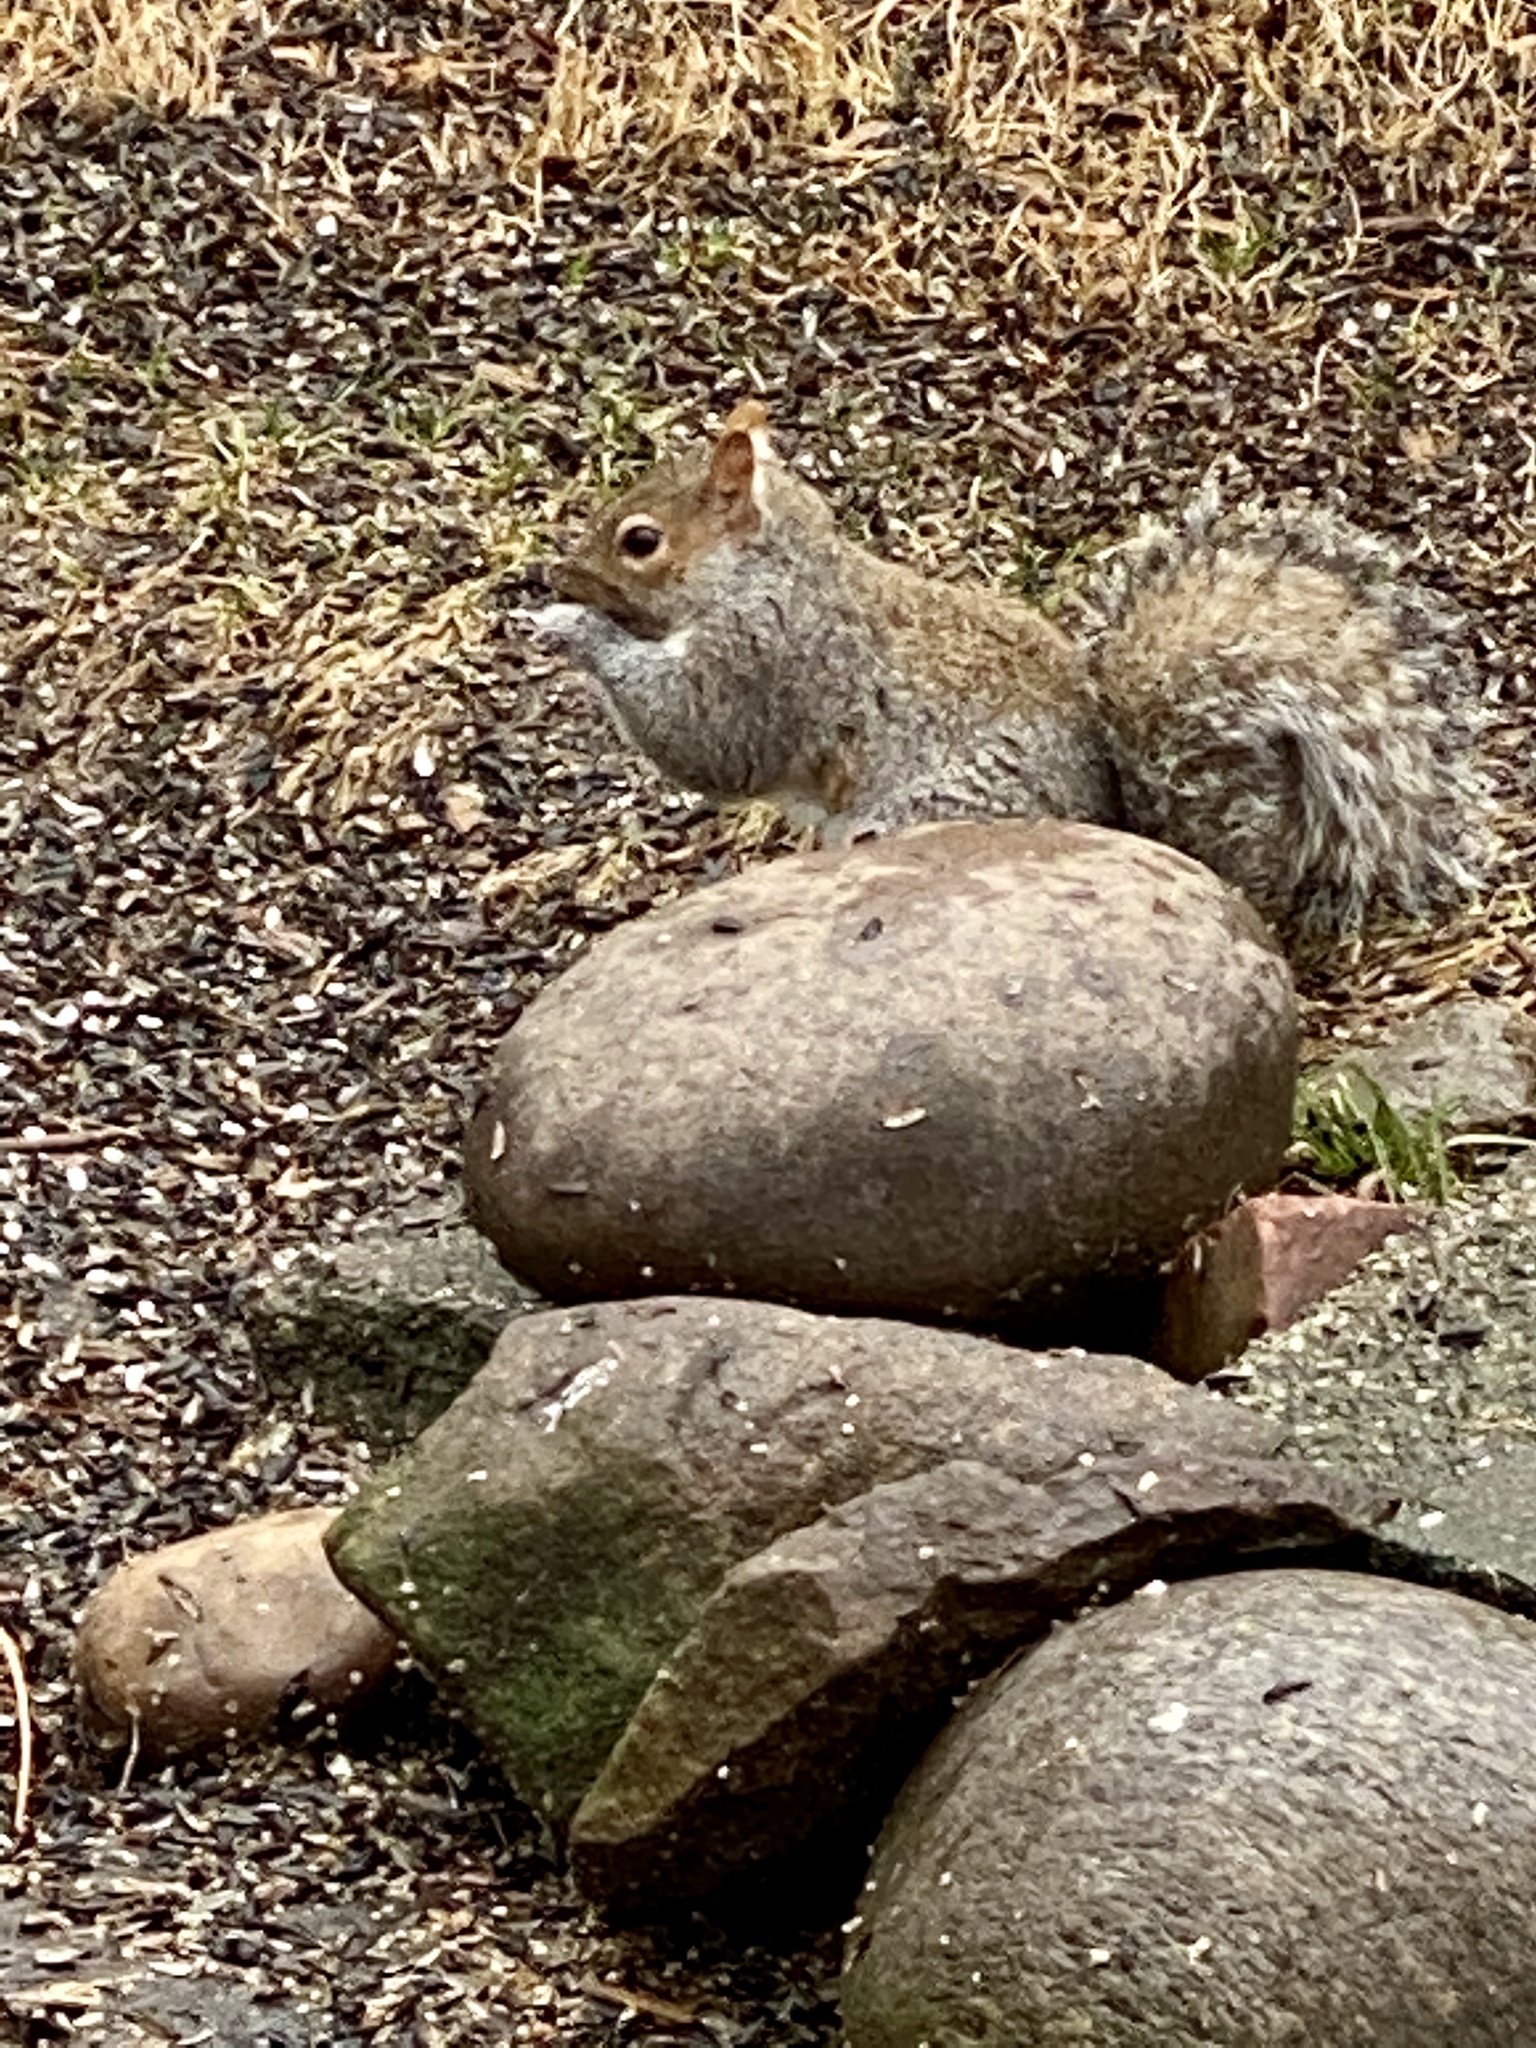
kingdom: Animalia
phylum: Chordata
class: Mammalia
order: Rodentia
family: Sciuridae
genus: Sciurus
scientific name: Sciurus carolinensis
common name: Eastern gray squirrel
